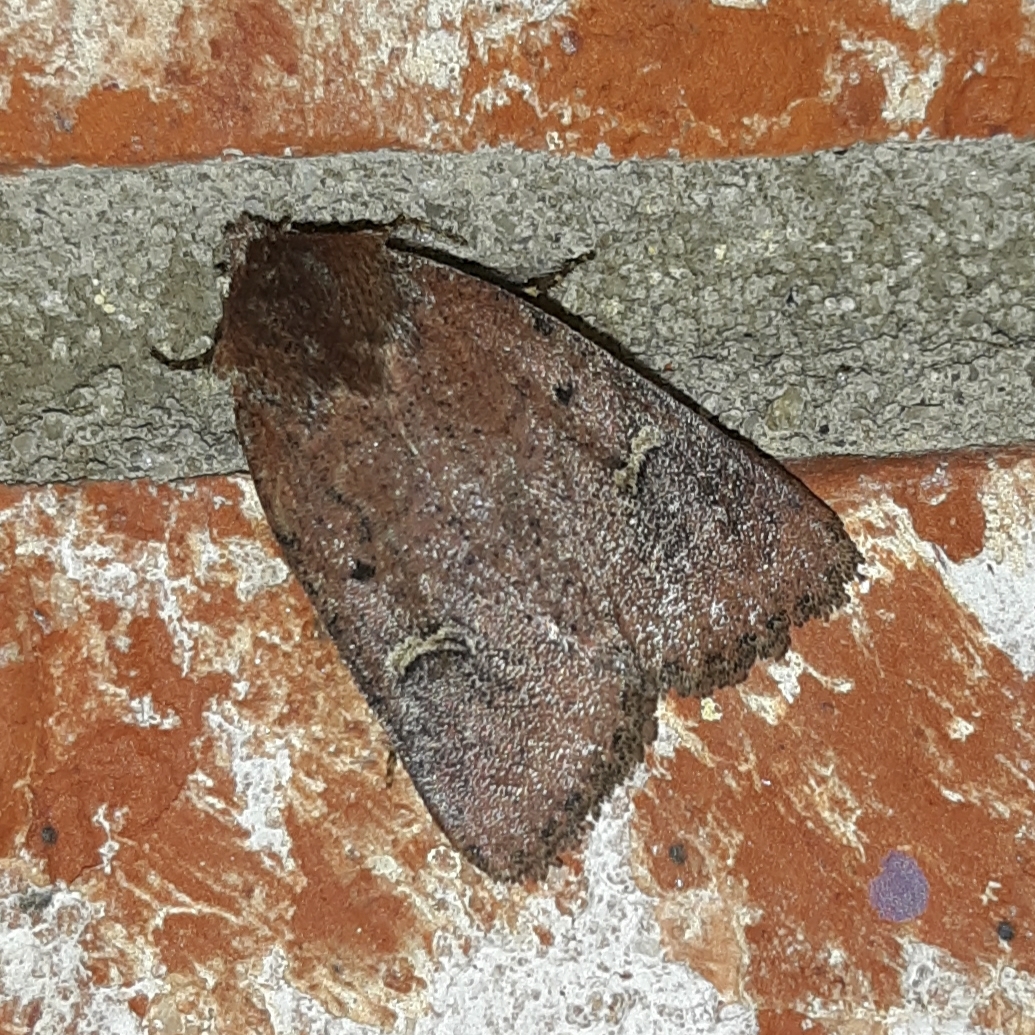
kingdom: Animalia
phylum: Arthropoda
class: Insecta
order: Lepidoptera
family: Noctuidae
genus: Eucoptocnemis
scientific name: Eucoptocnemis fimbriaris
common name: Fringed dart
